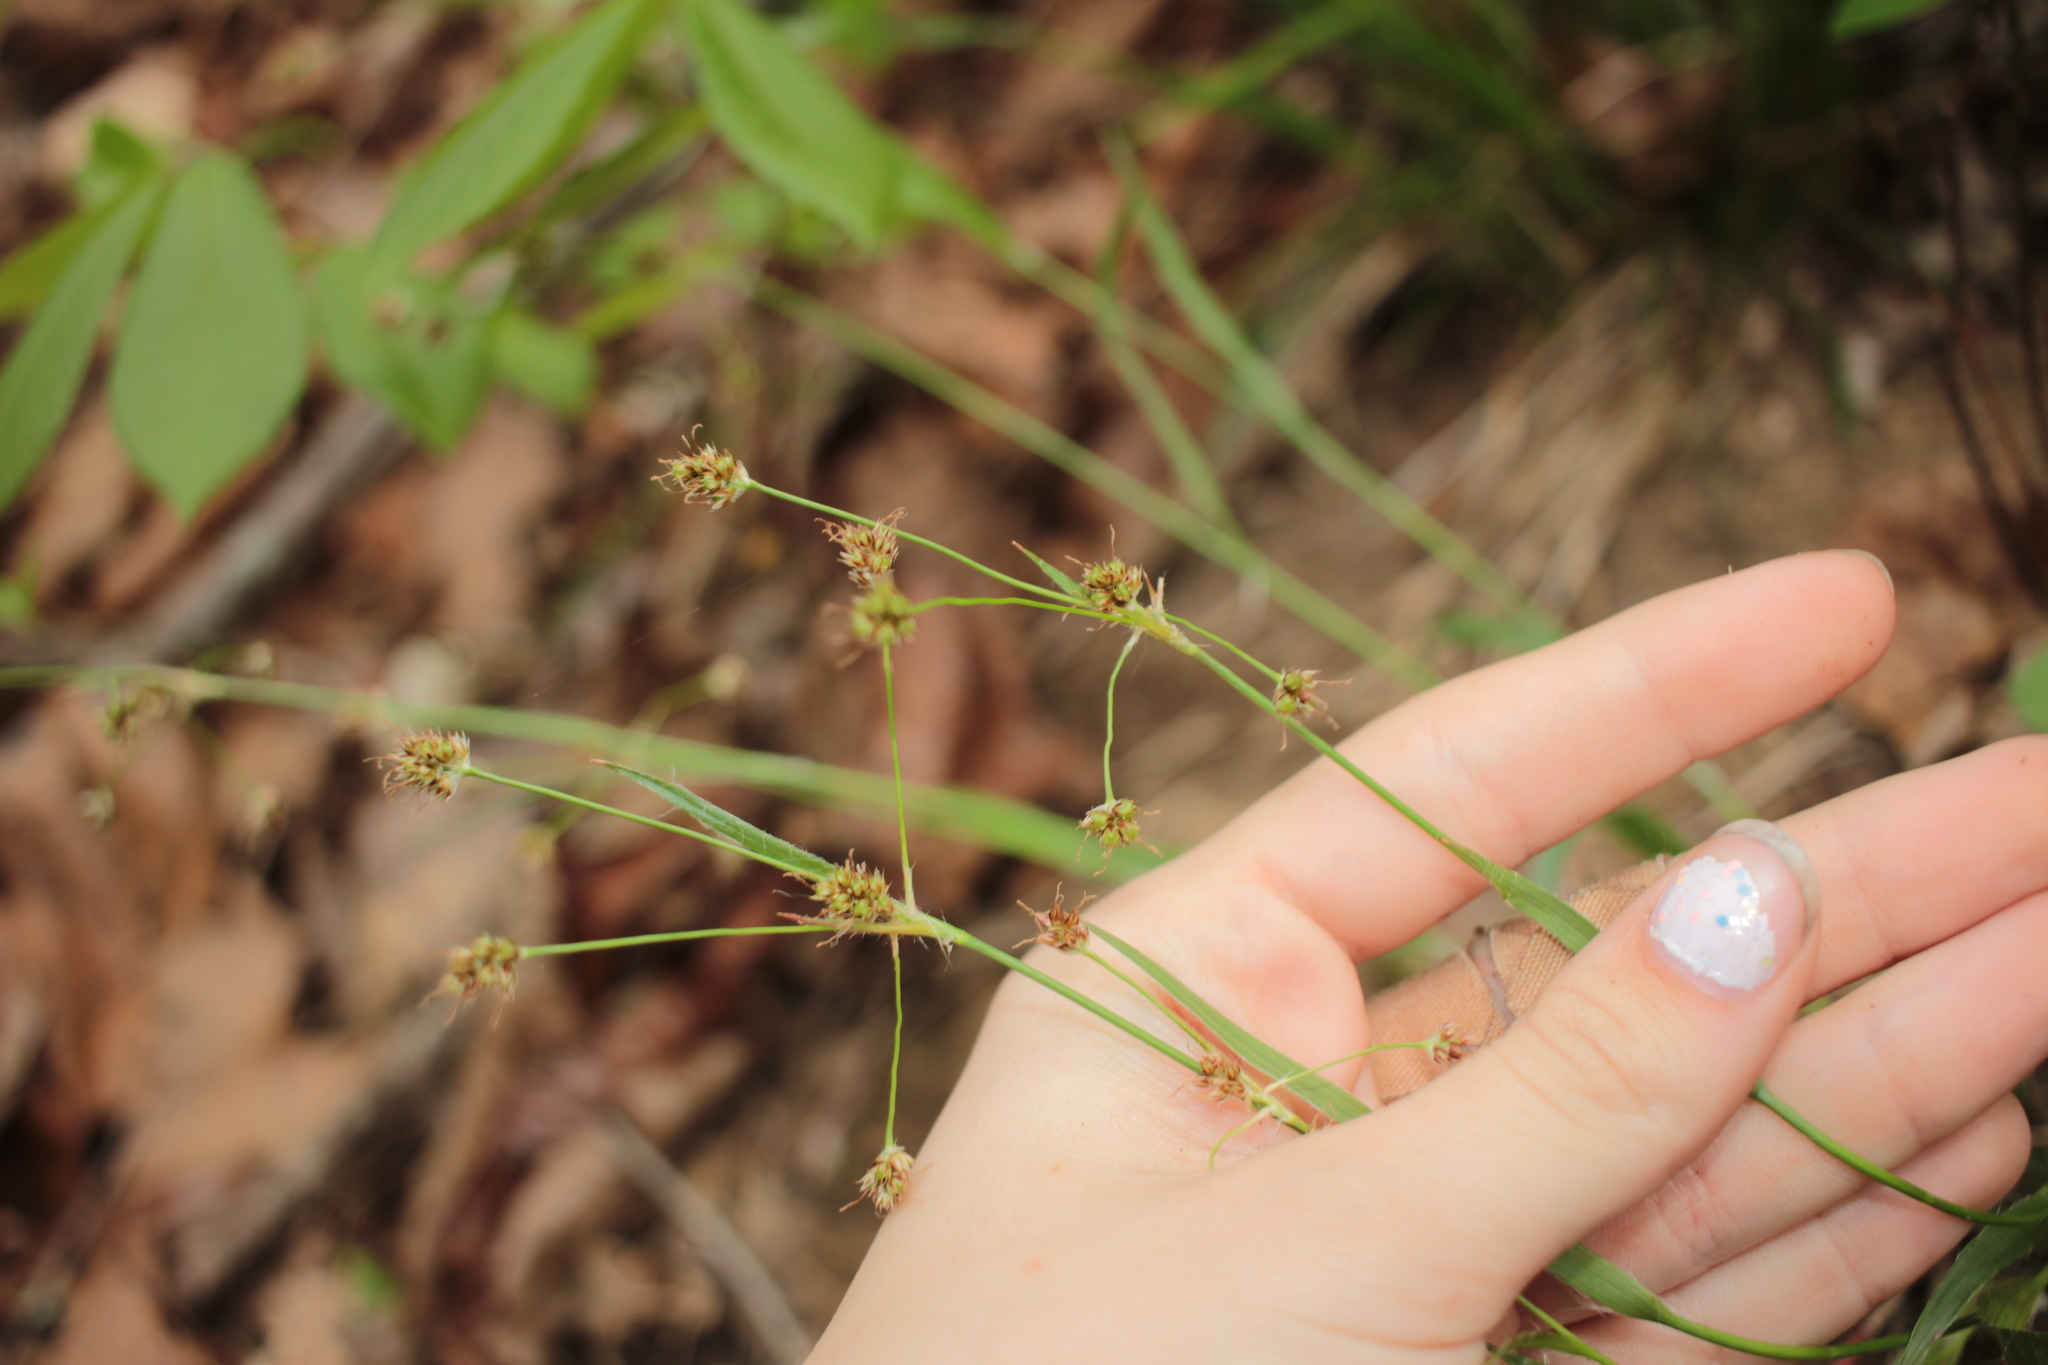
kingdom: Plantae
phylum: Tracheophyta
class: Liliopsida
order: Poales
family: Juncaceae
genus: Luzula
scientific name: Luzula multiflora
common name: Heath wood-rush
